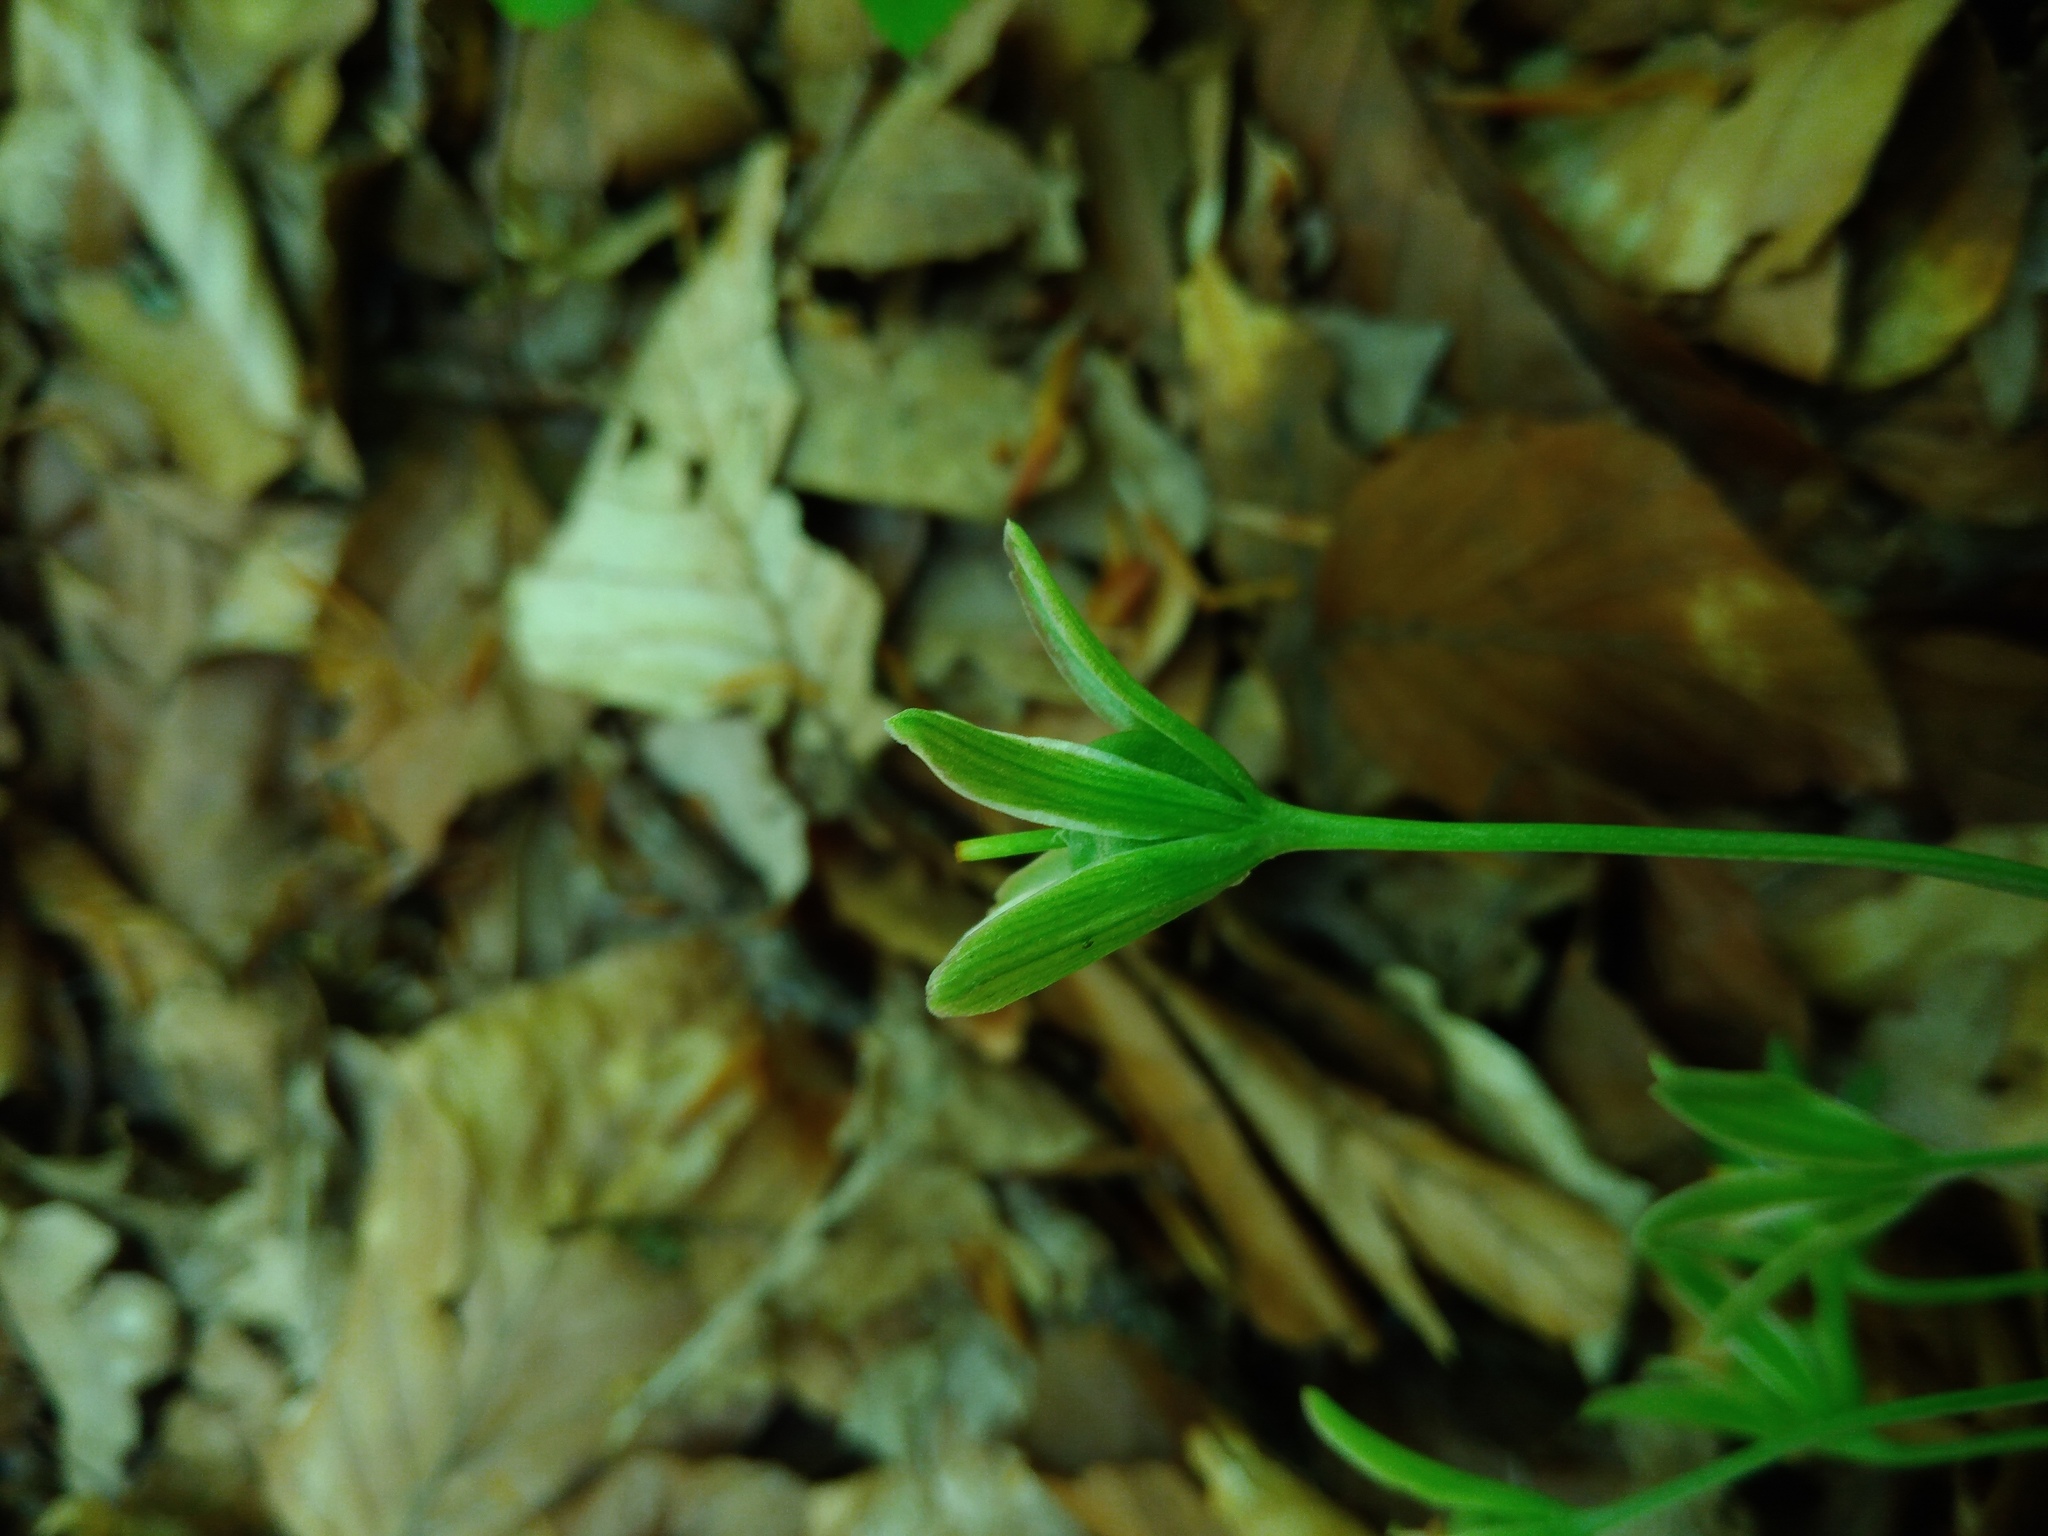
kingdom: Plantae
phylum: Tracheophyta
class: Liliopsida
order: Liliales
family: Liliaceae
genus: Gagea
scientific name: Gagea lutea
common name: Yellow star-of-bethlehem
